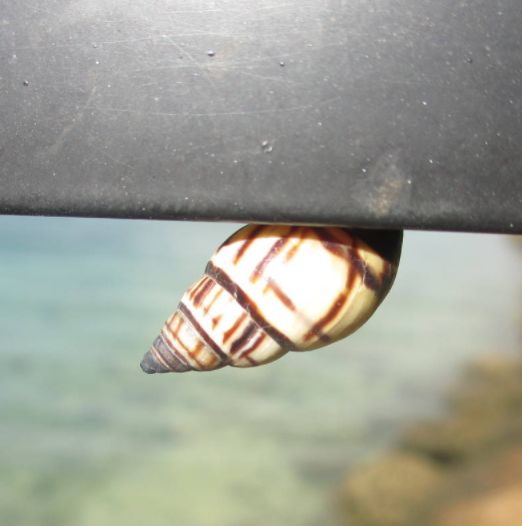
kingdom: Animalia
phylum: Mollusca
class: Gastropoda
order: Stylommatophora
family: Bulimulidae
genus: Drymaeus
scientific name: Drymaeus
